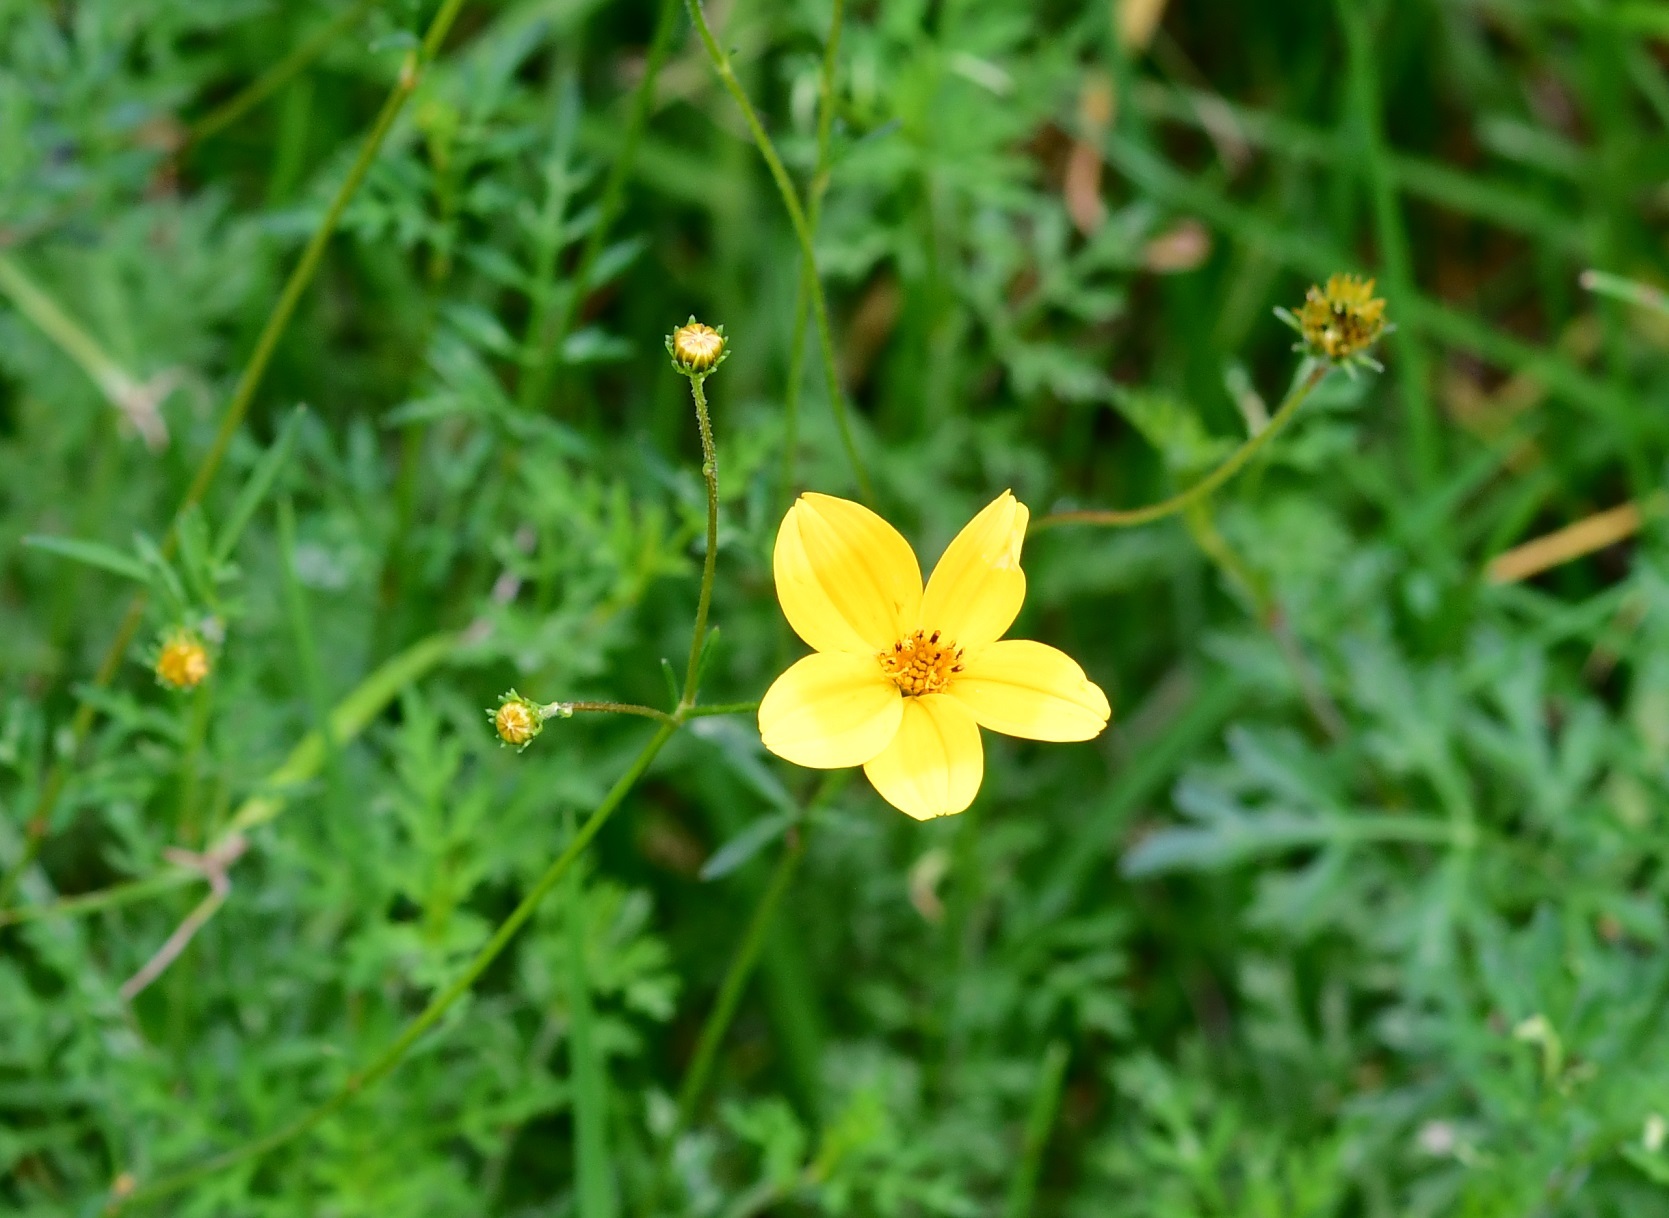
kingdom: Plantae
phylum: Tracheophyta
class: Magnoliopsida
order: Asterales
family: Asteraceae
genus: Bidens
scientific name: Bidens triplinervia
